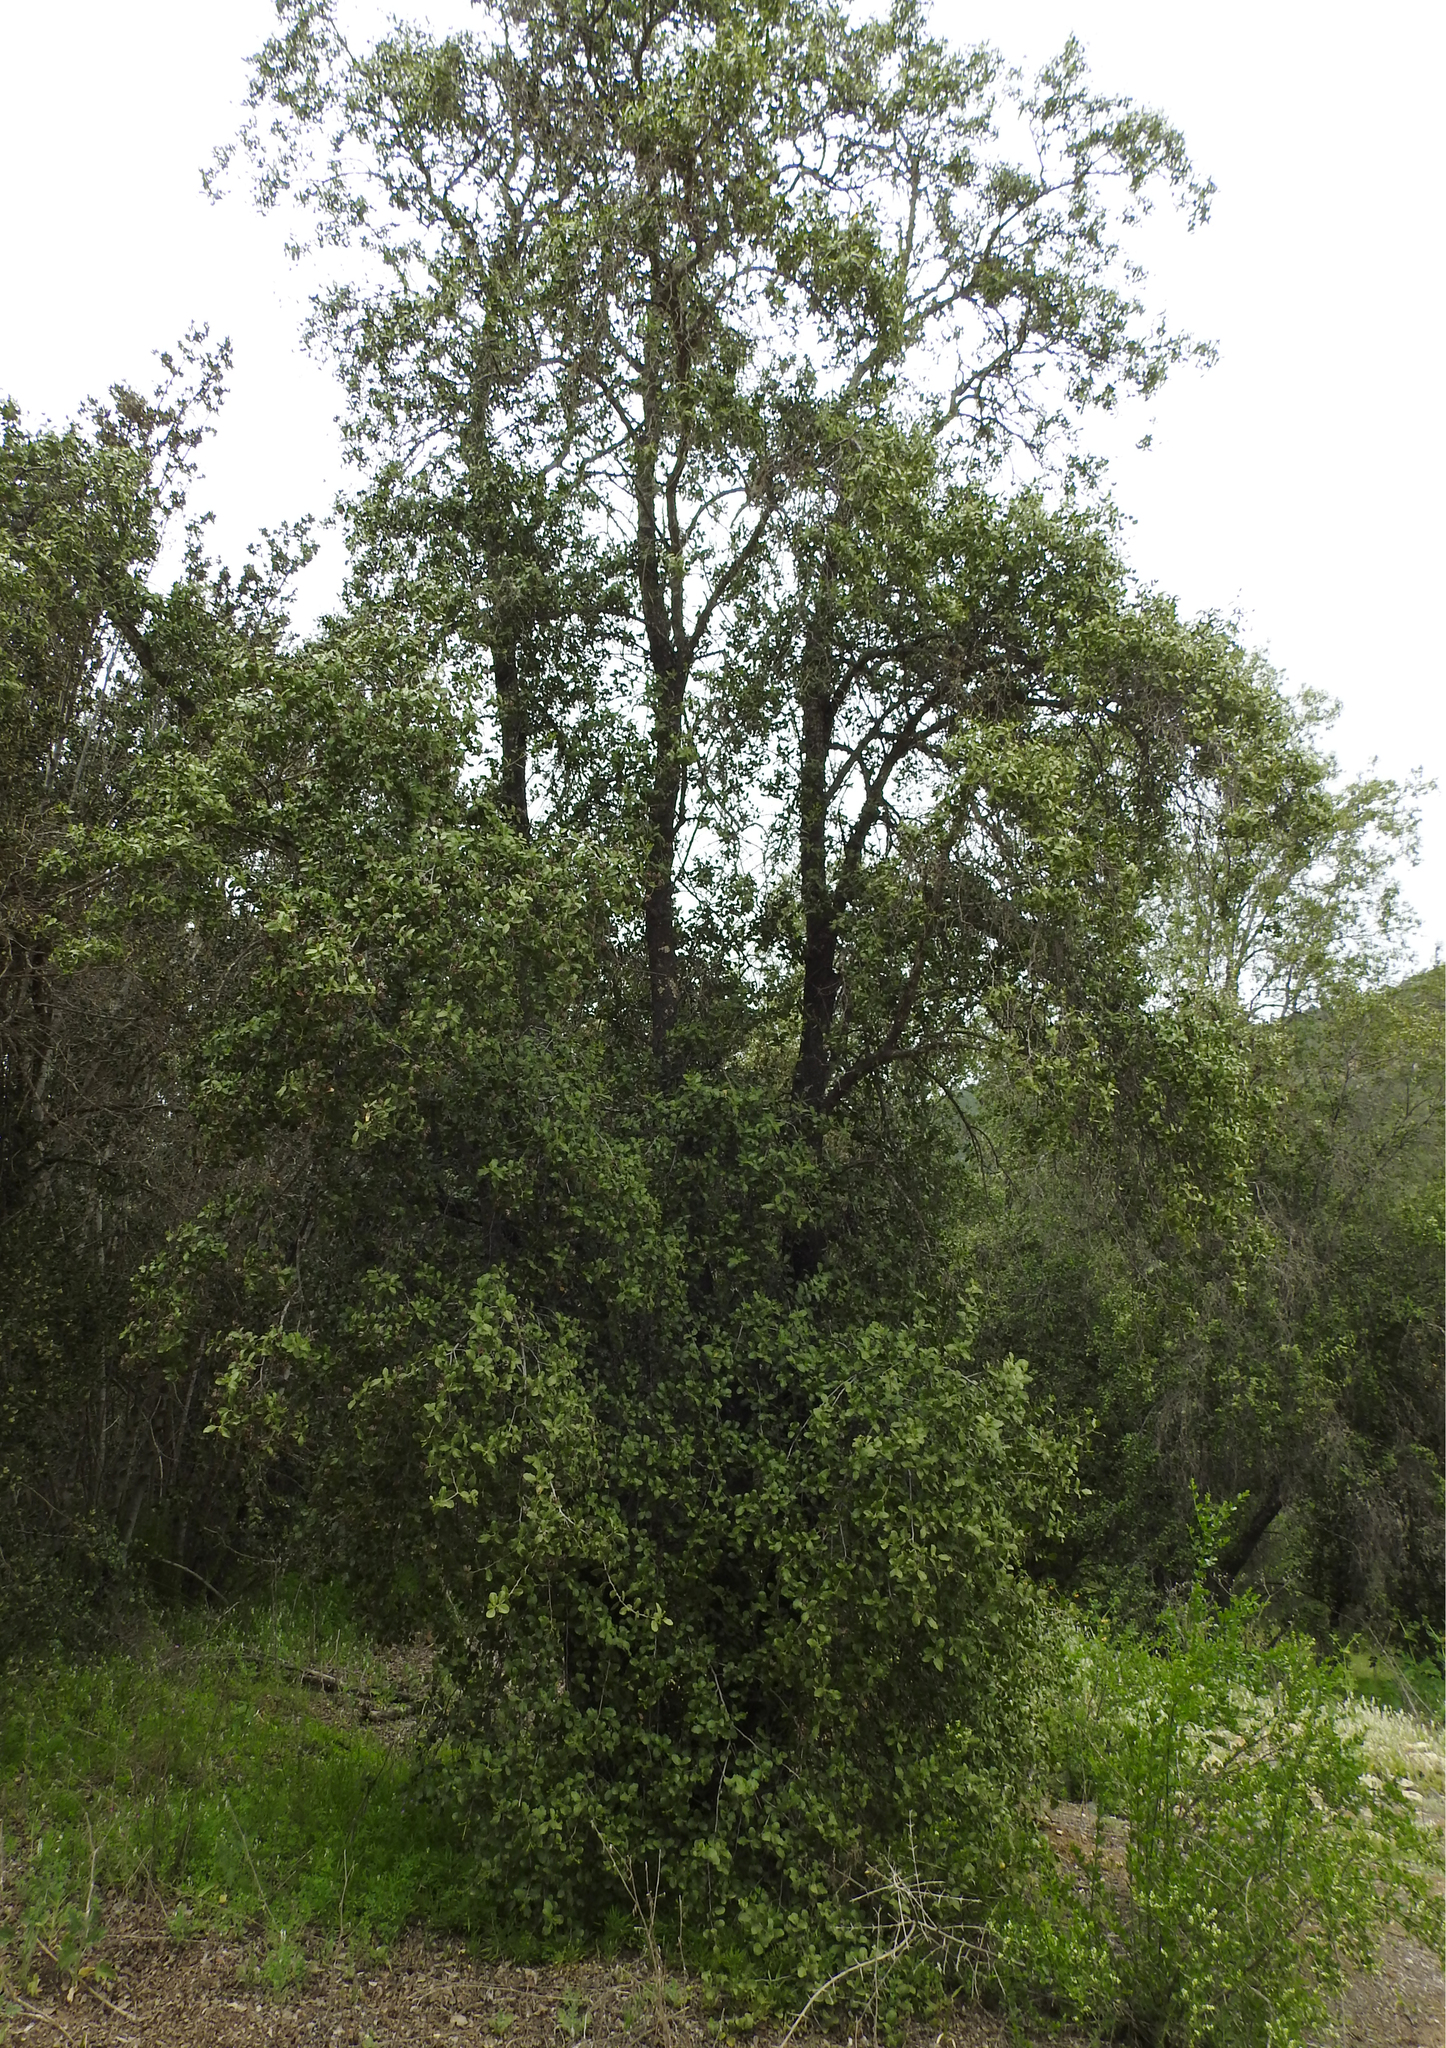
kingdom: Plantae
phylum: Tracheophyta
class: Magnoliopsida
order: Fabales
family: Quillajaceae
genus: Quillaja
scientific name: Quillaja saponaria
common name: Murillo's-bark
